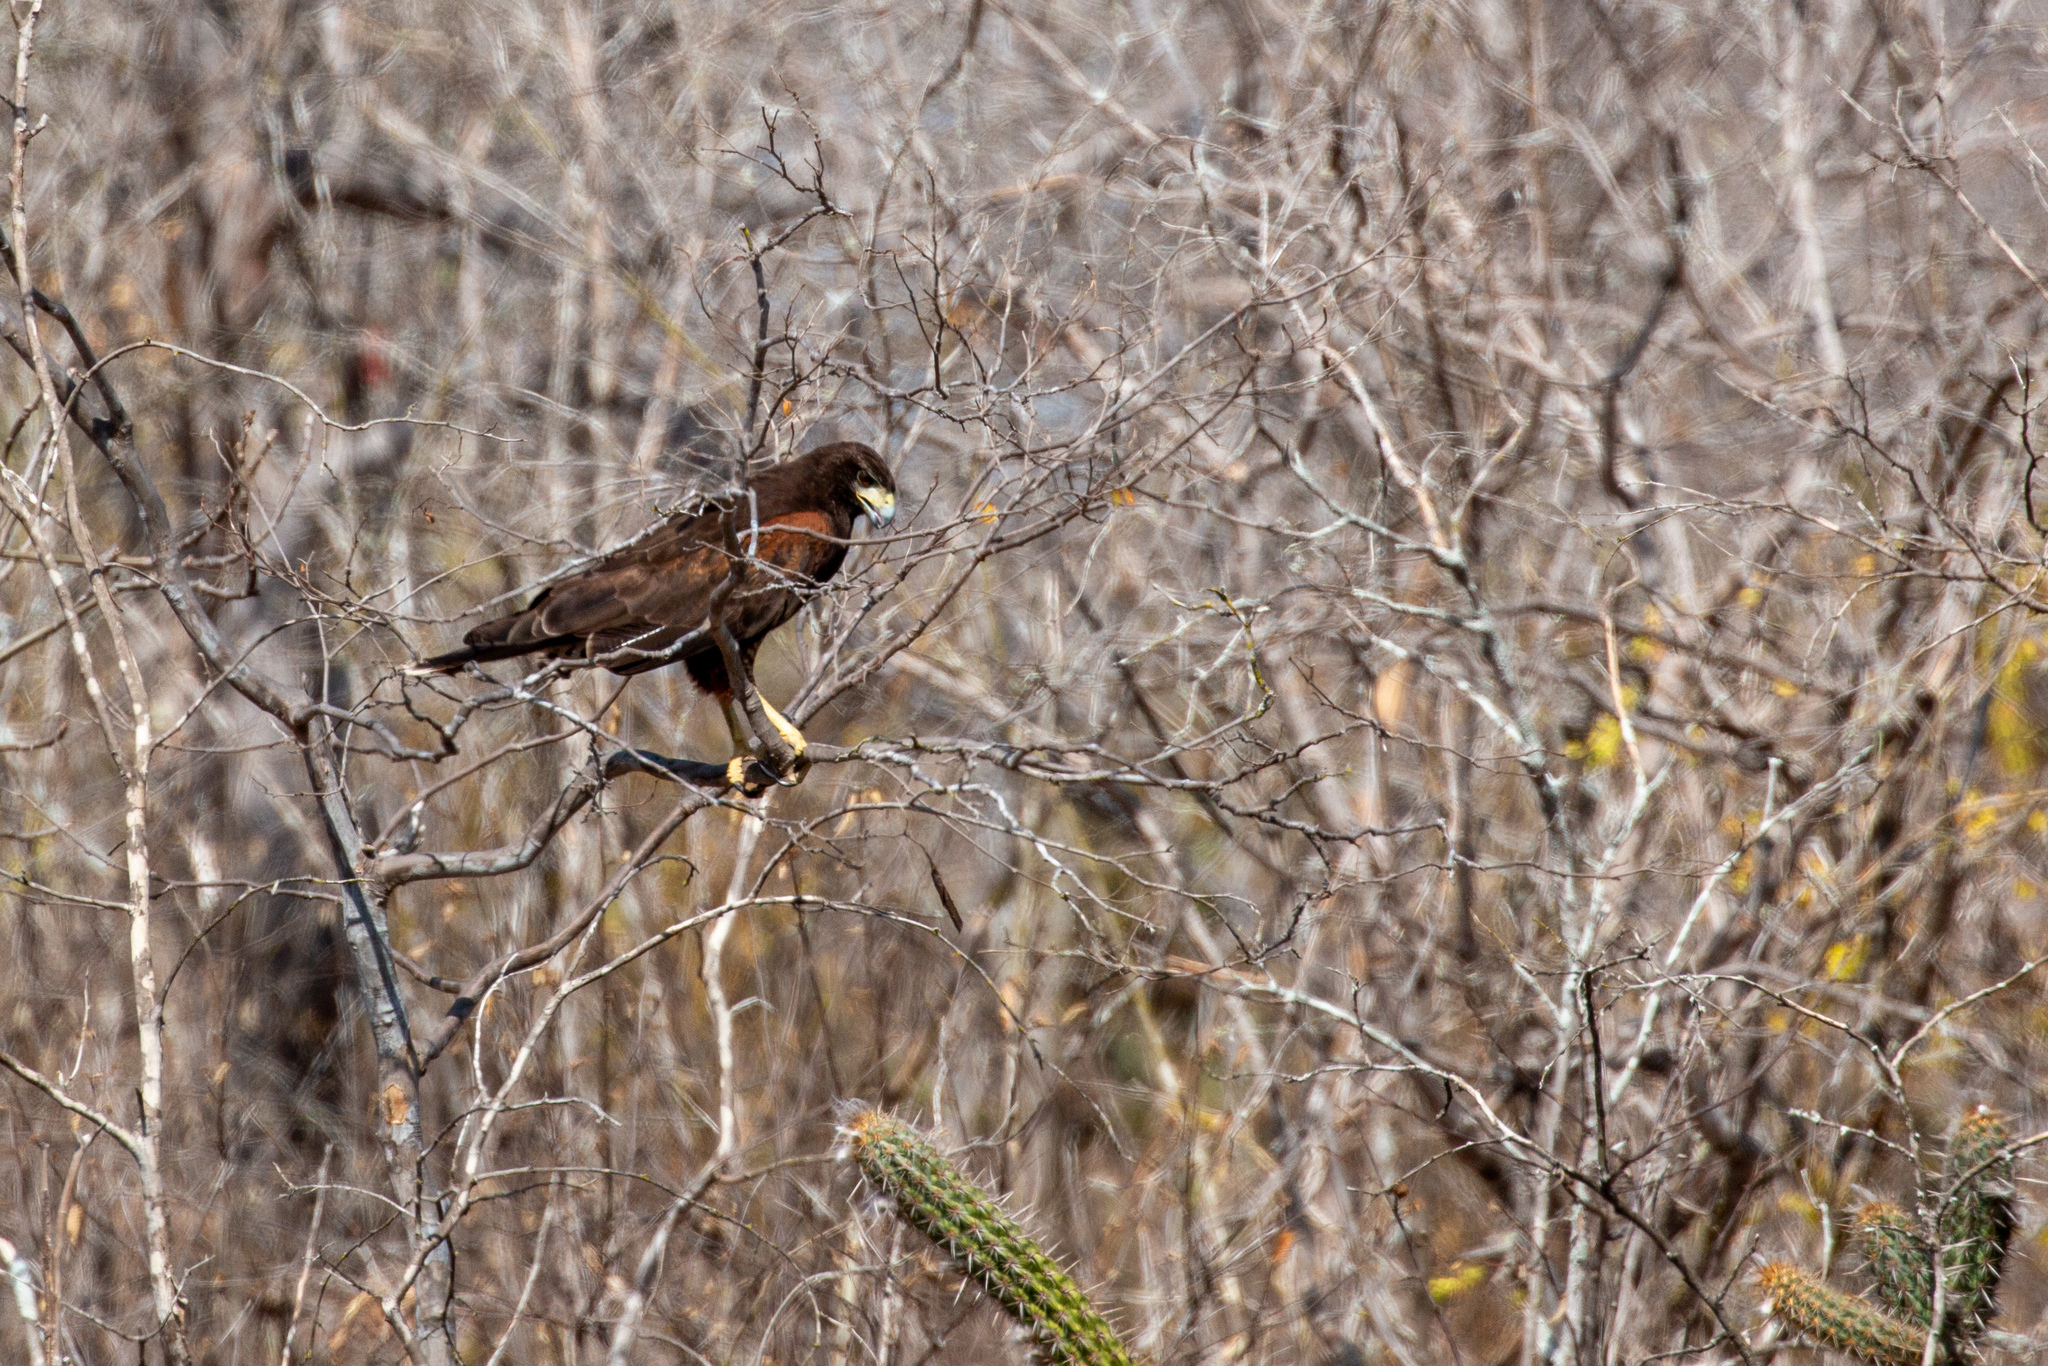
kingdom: Animalia
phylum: Chordata
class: Aves
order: Accipitriformes
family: Accipitridae
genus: Parabuteo
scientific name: Parabuteo unicinctus
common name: Harris's hawk
